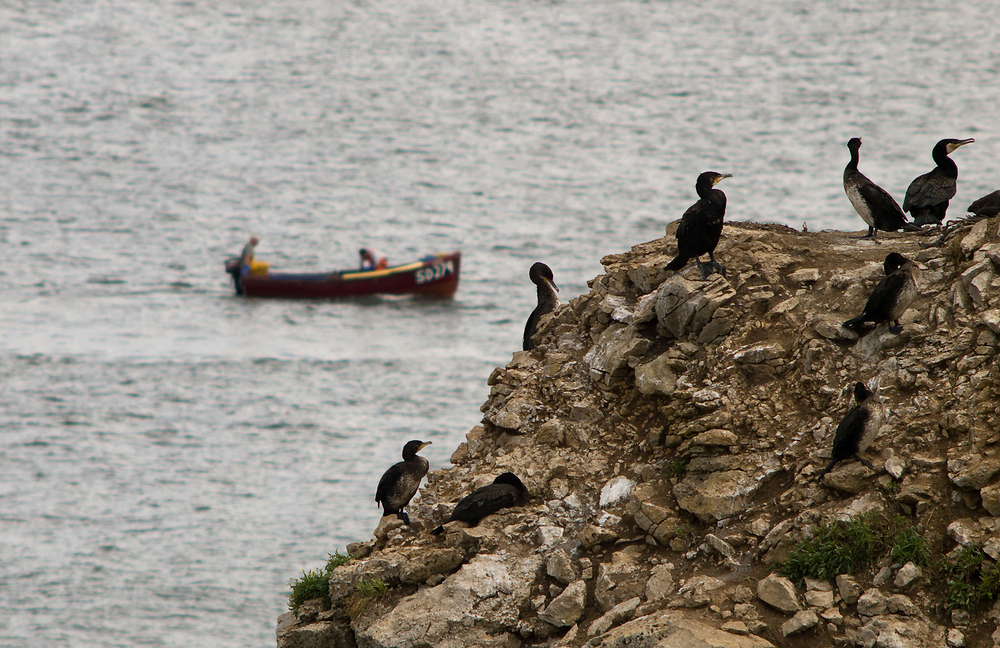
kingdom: Animalia
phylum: Chordata
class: Aves
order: Suliformes
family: Phalacrocoracidae
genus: Phalacrocorax
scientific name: Phalacrocorax carbo
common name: Great cormorant
